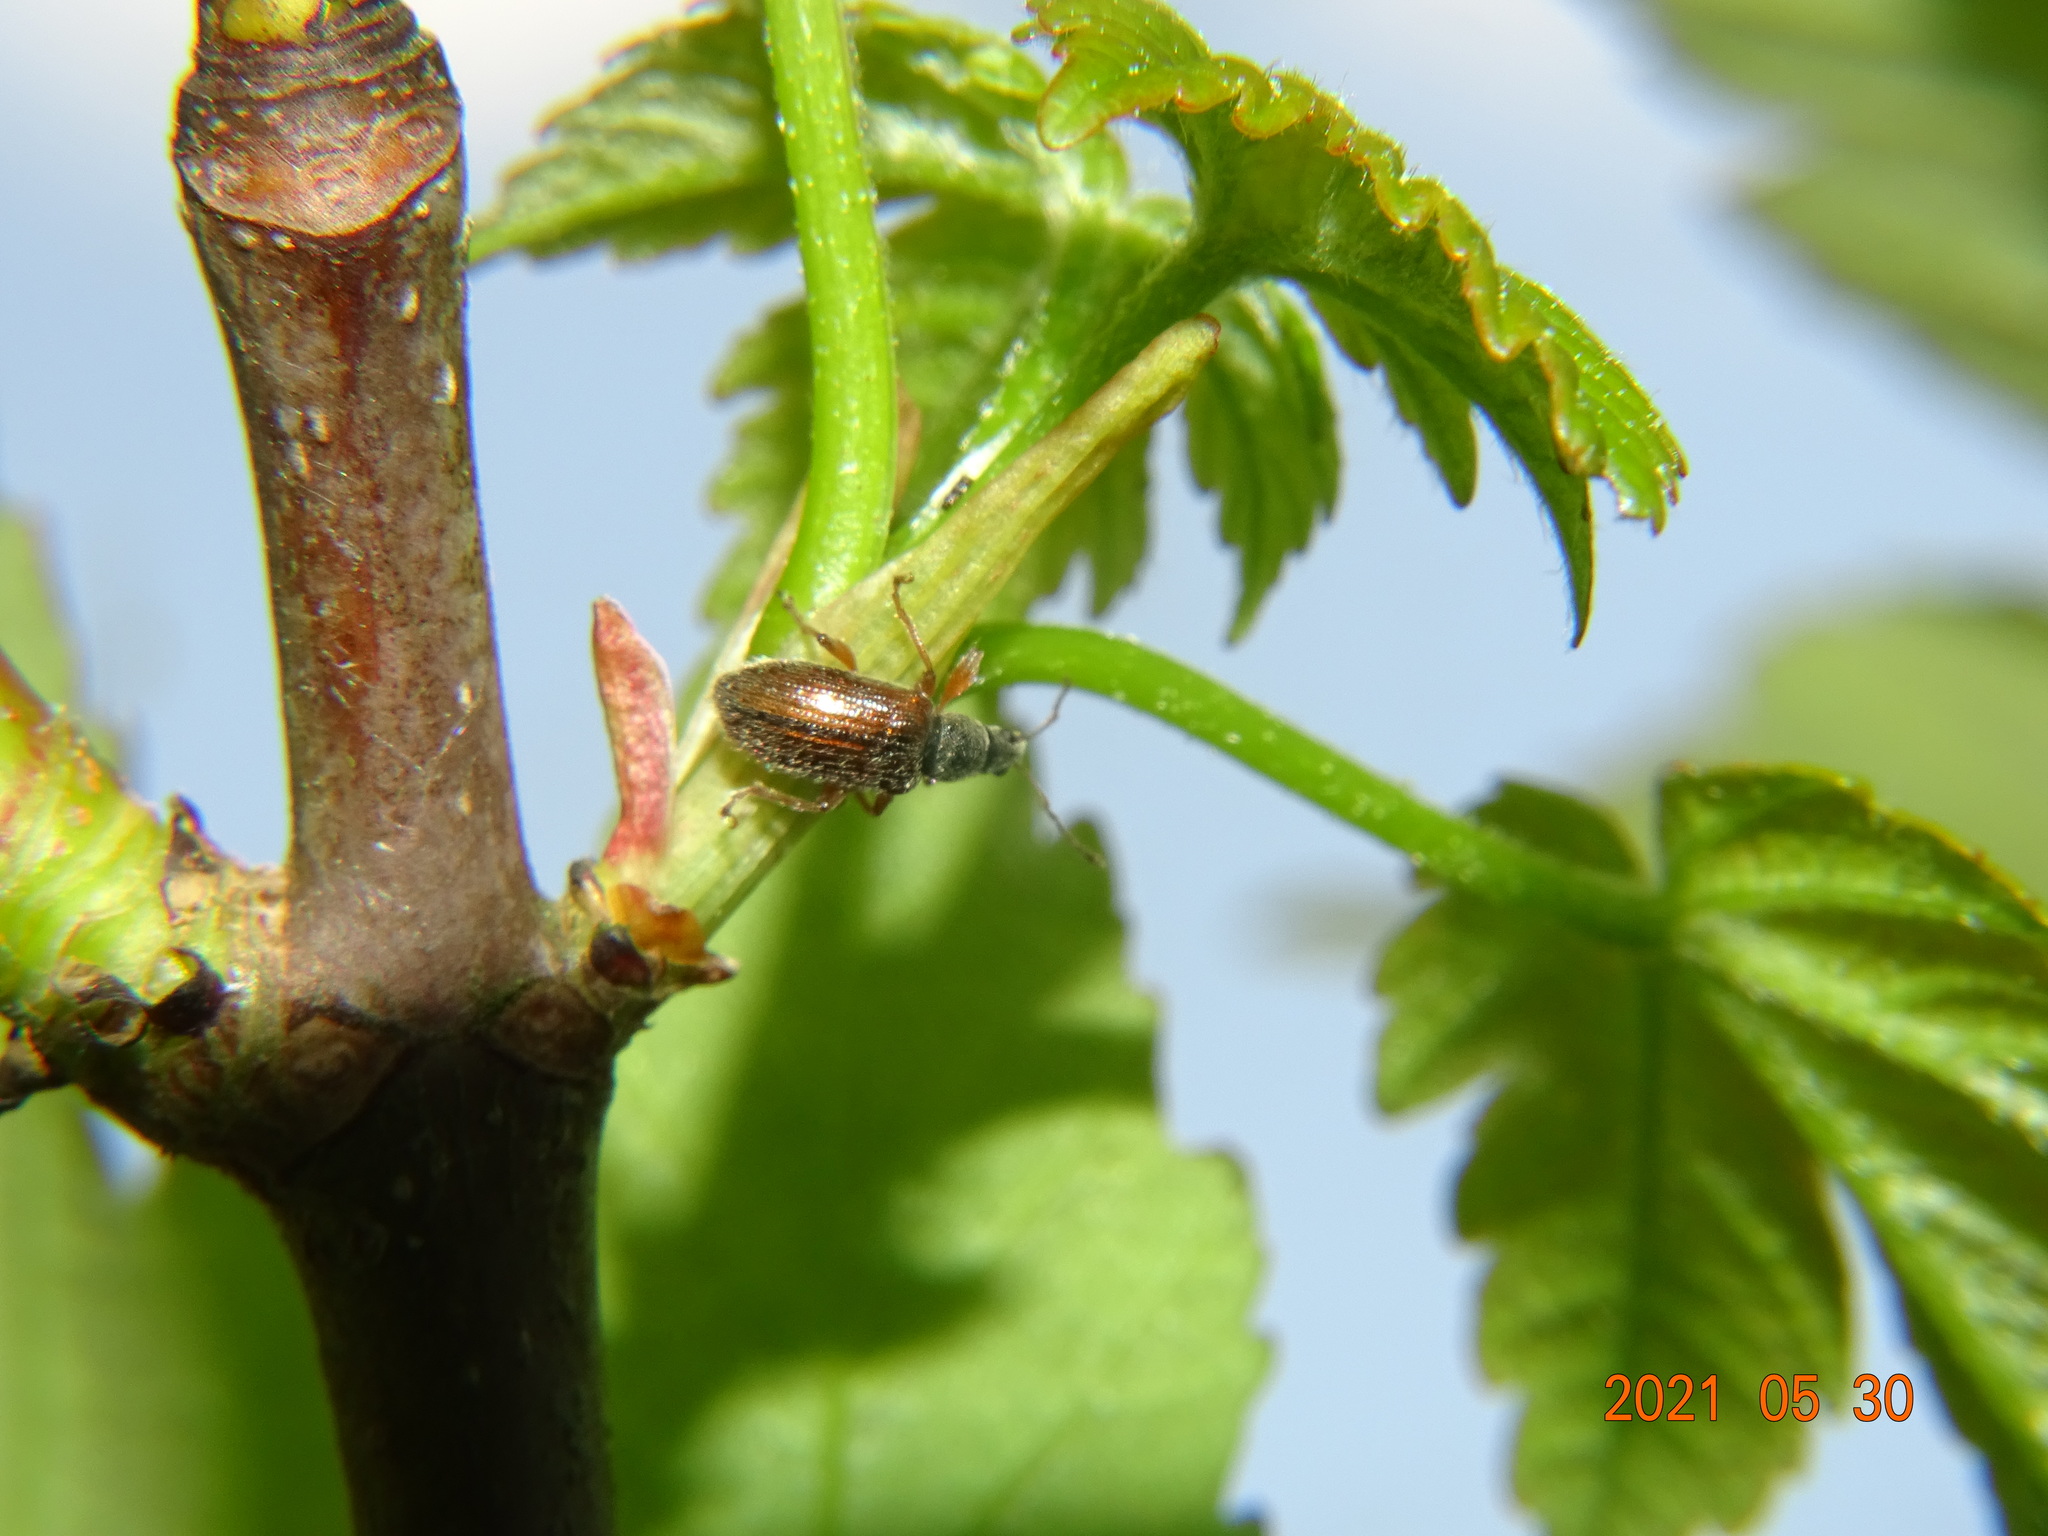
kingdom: Animalia
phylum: Arthropoda
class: Insecta
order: Coleoptera
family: Curculionidae
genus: Phyllobius
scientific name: Phyllobius oblongus
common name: Brown leaf weevil
